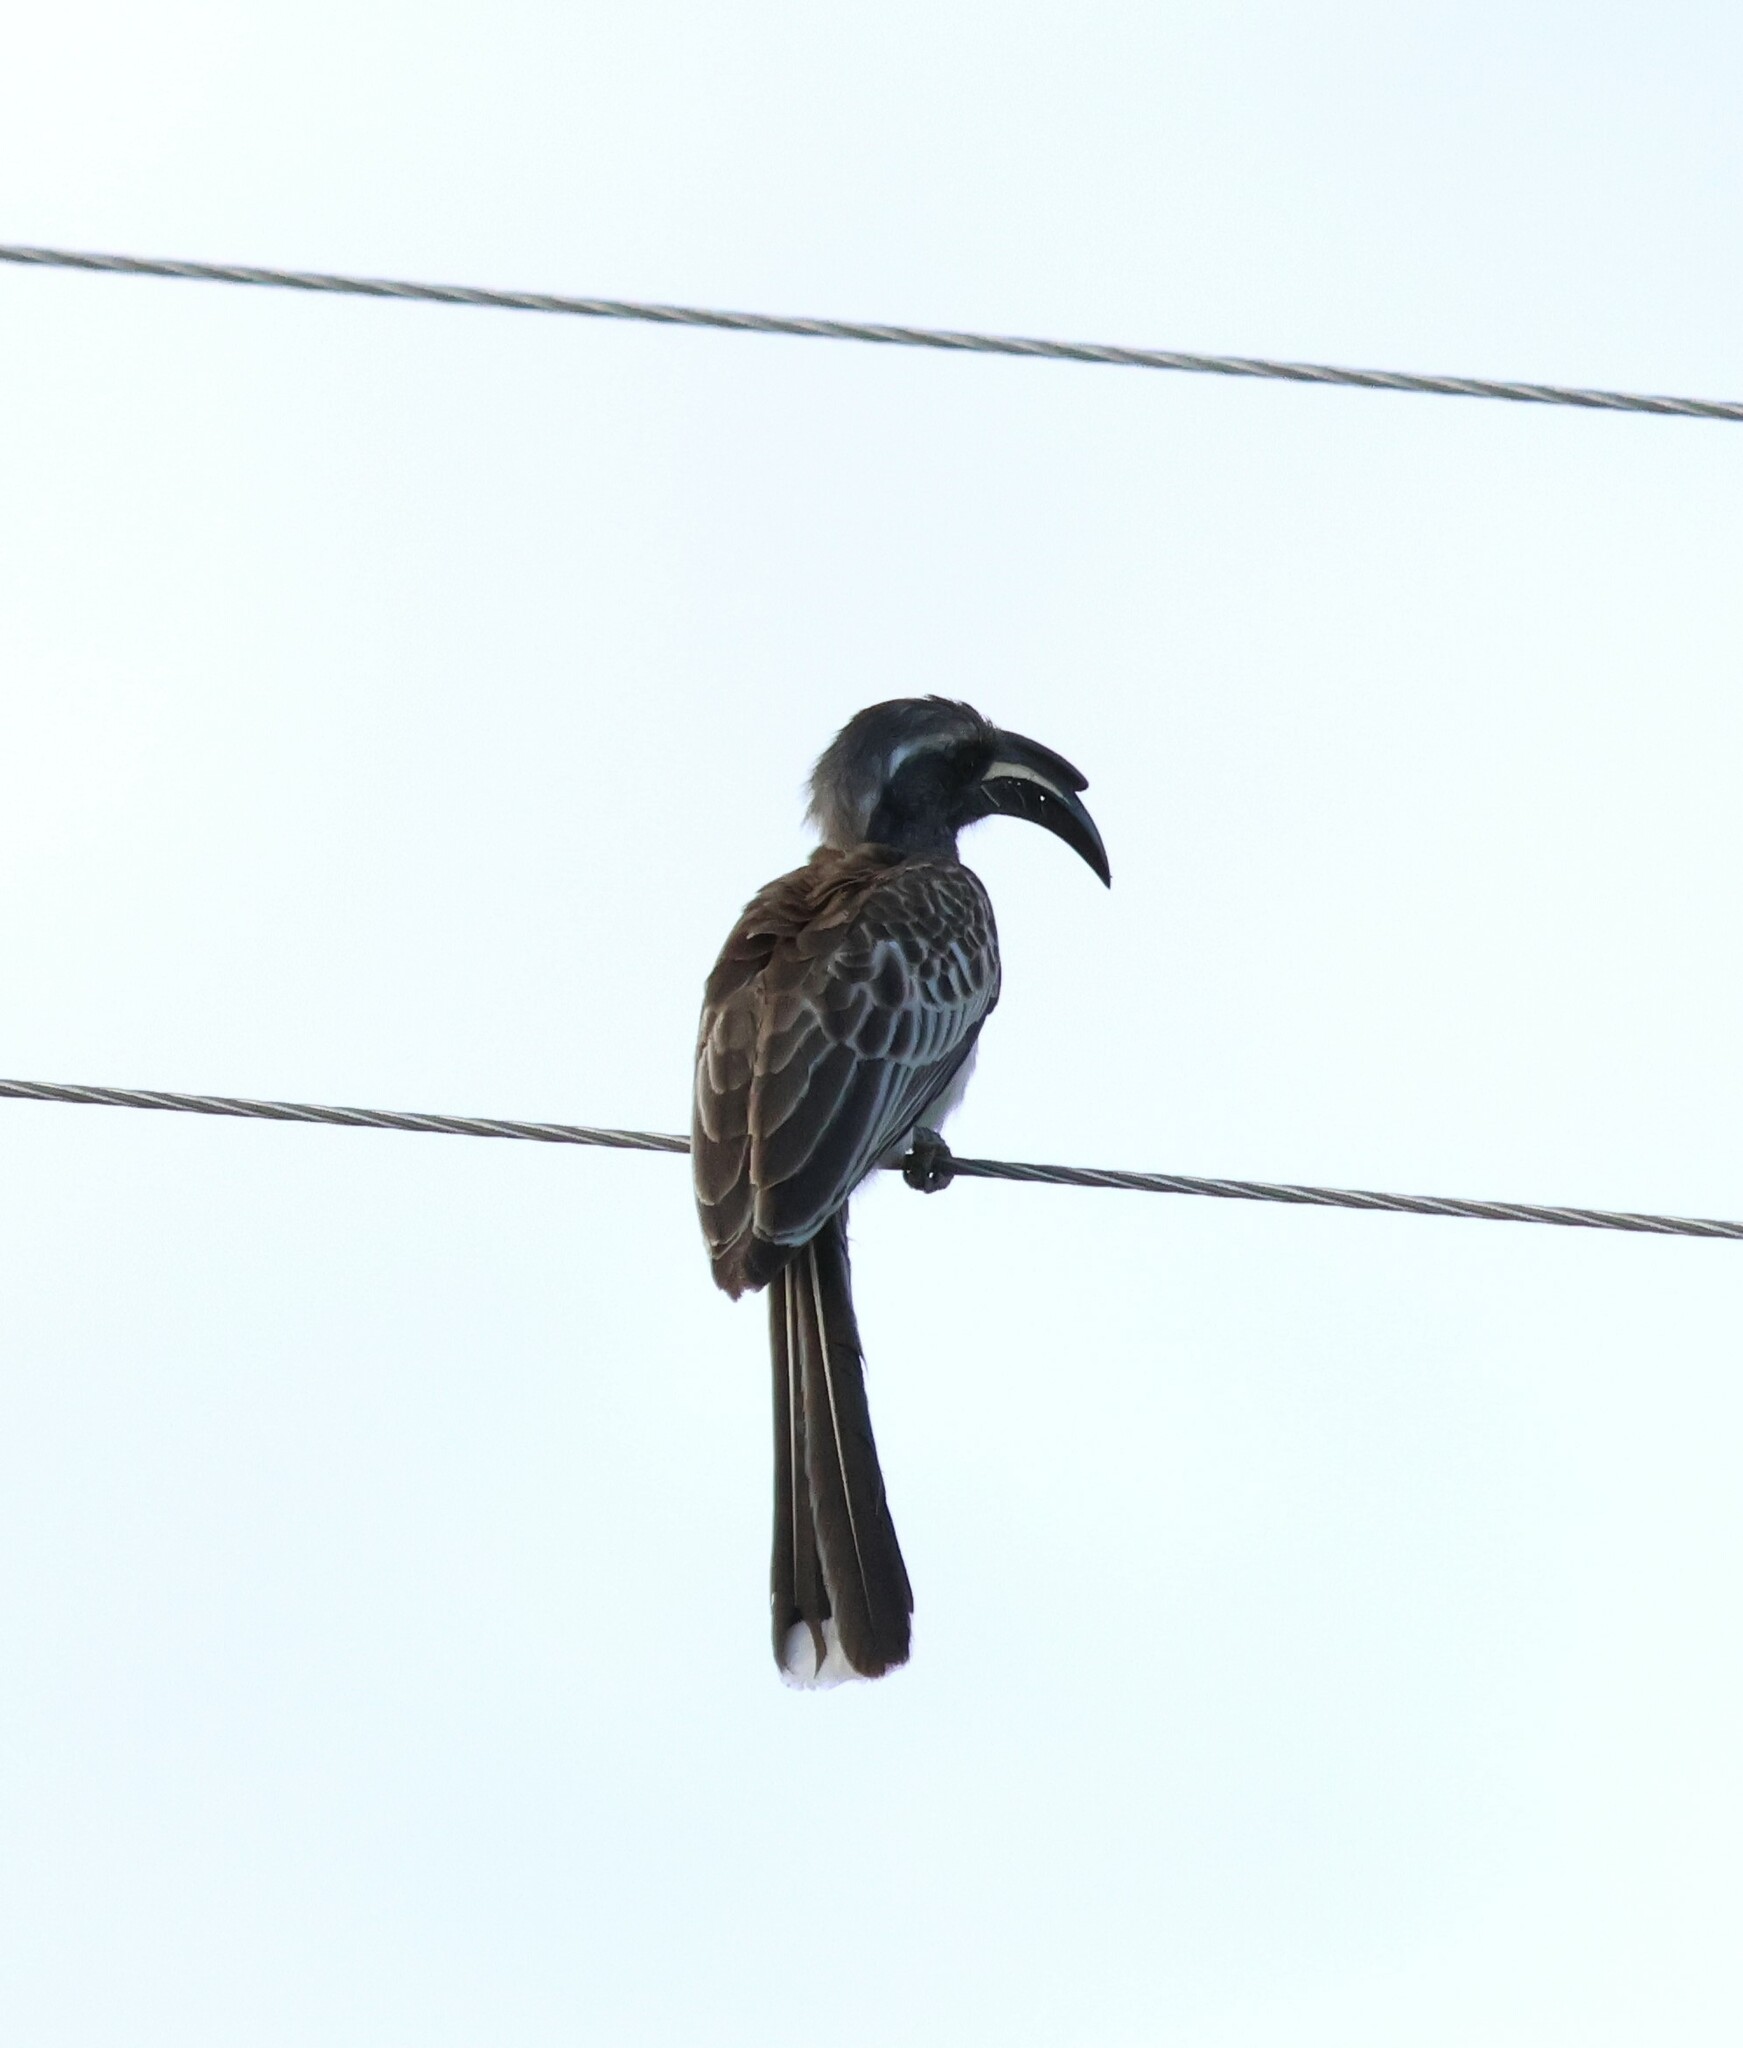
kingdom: Animalia
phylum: Chordata
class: Aves
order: Bucerotiformes
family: Bucerotidae
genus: Lophoceros
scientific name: Lophoceros nasutus
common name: African grey hornbill
